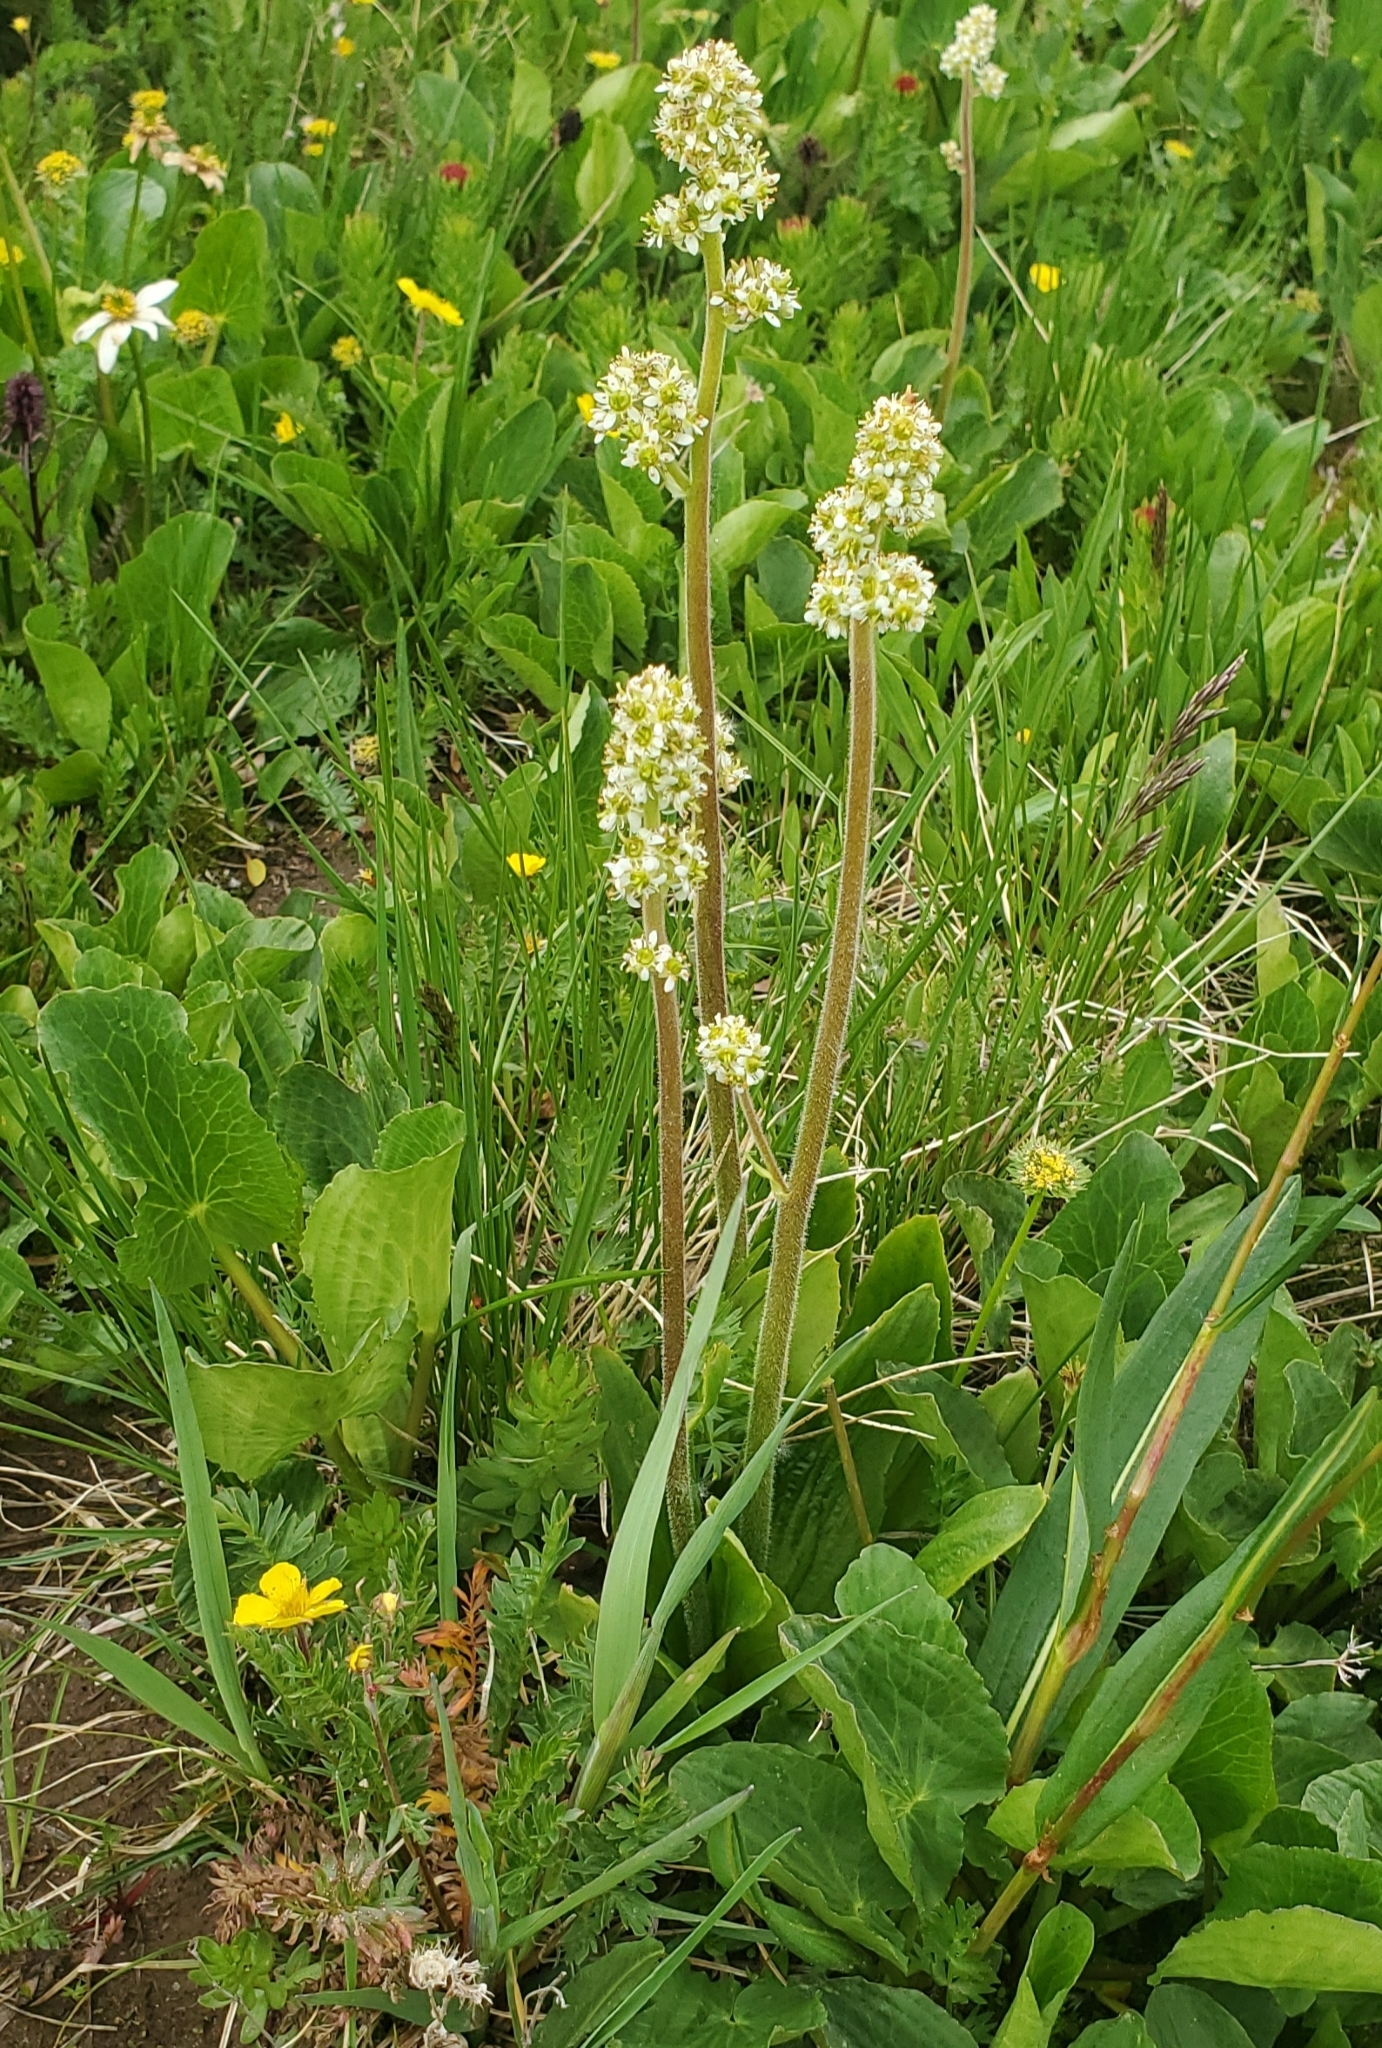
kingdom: Plantae
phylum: Tracheophyta
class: Magnoliopsida
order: Saxifragales
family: Saxifragaceae
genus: Micranthes
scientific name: Micranthes oregana
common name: Bog saxifrage
